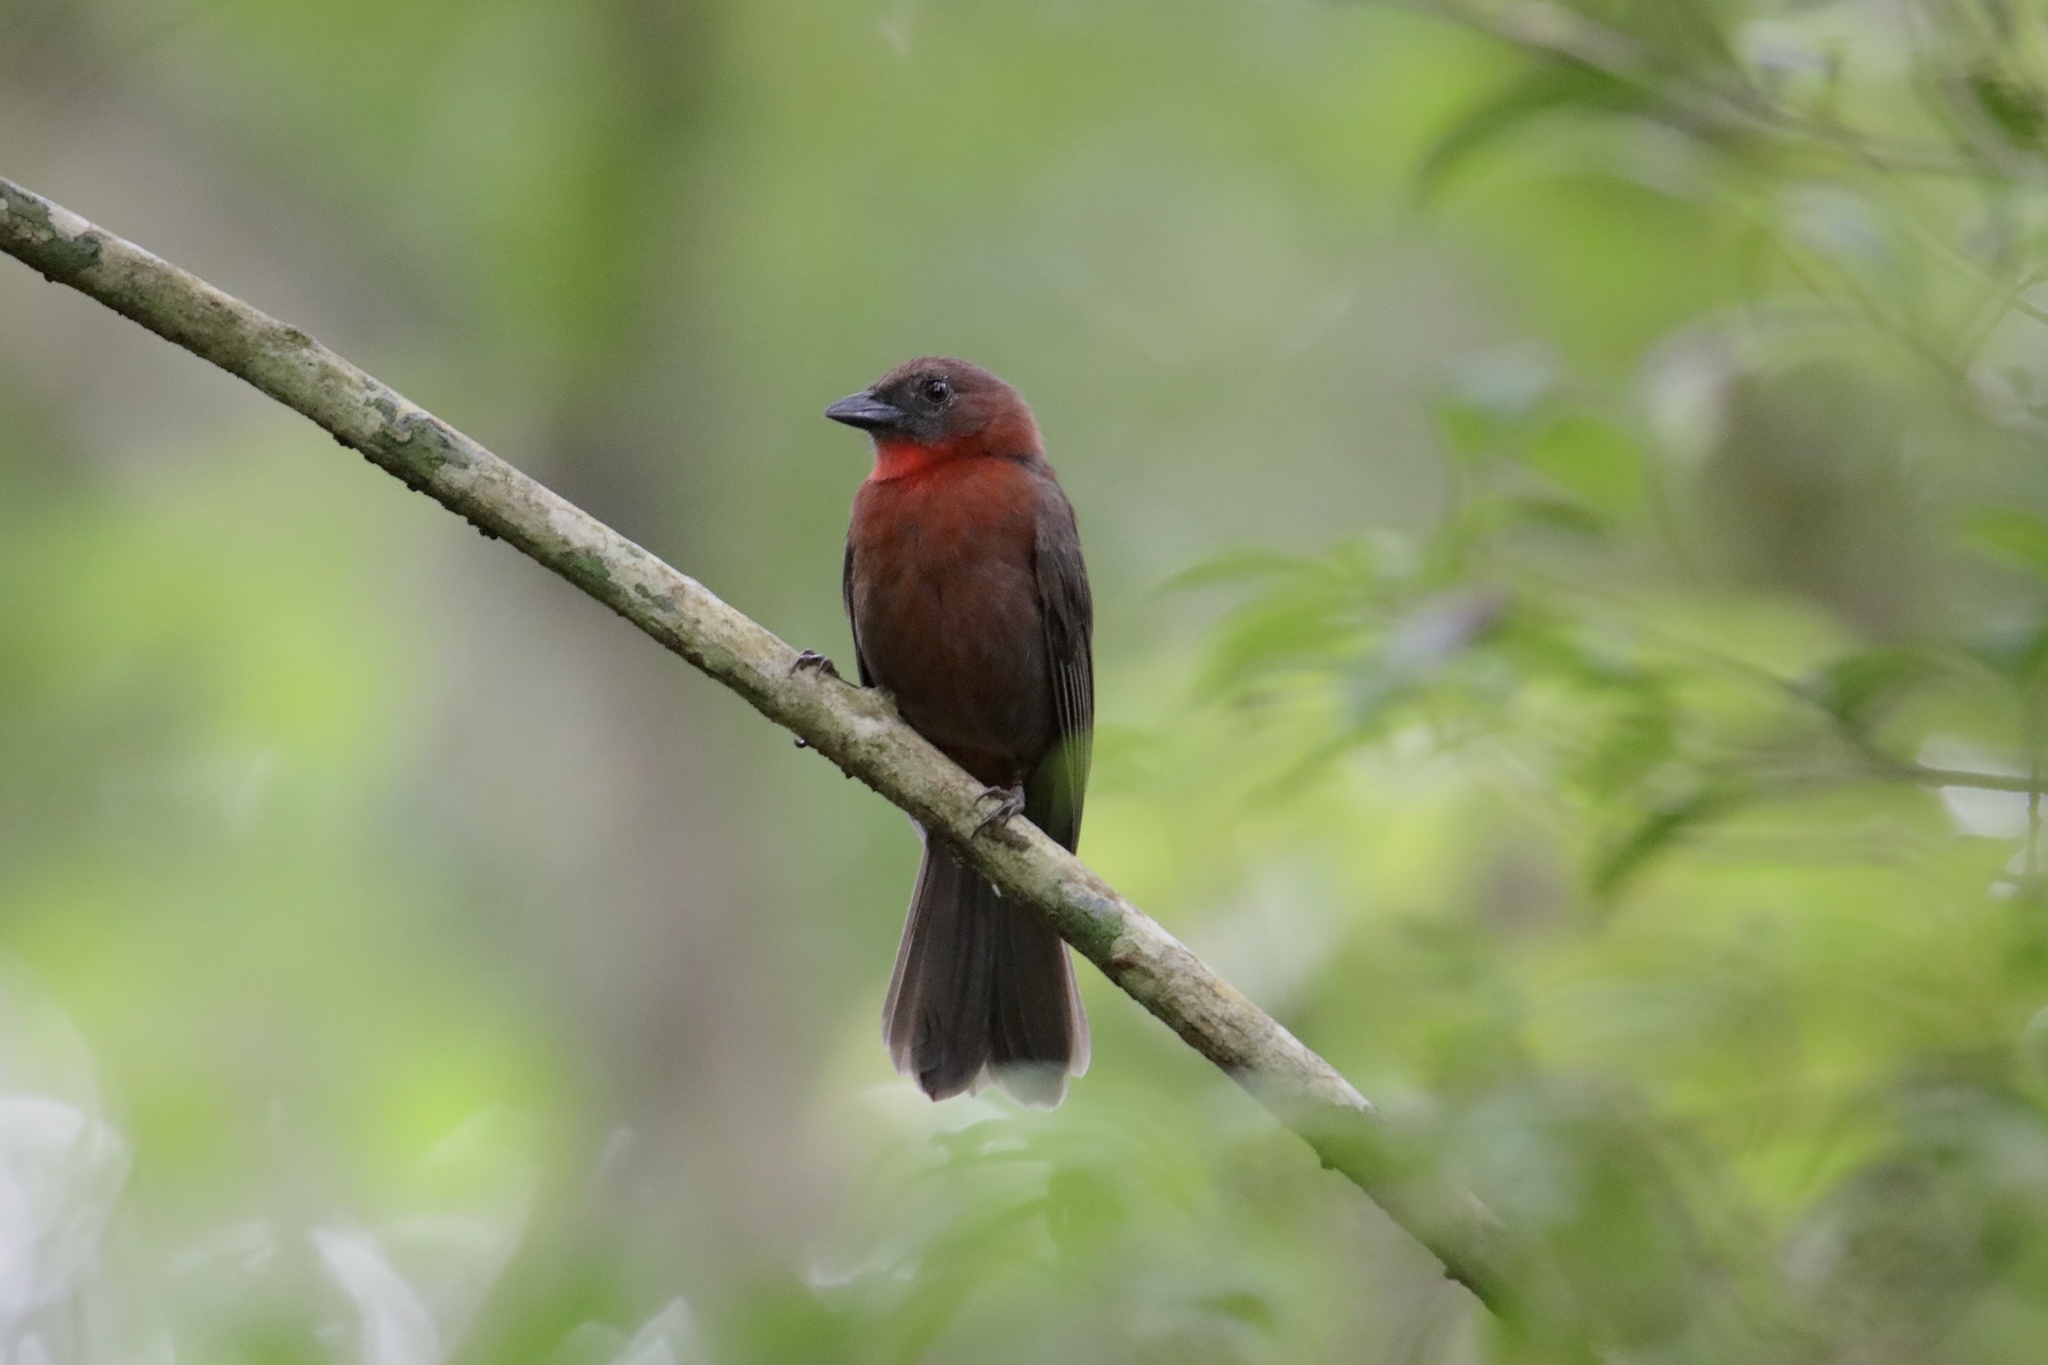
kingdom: Animalia
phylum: Chordata
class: Aves
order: Passeriformes
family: Cardinalidae
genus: Habia
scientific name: Habia fuscicauda
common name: Red-throated ant-tanager
